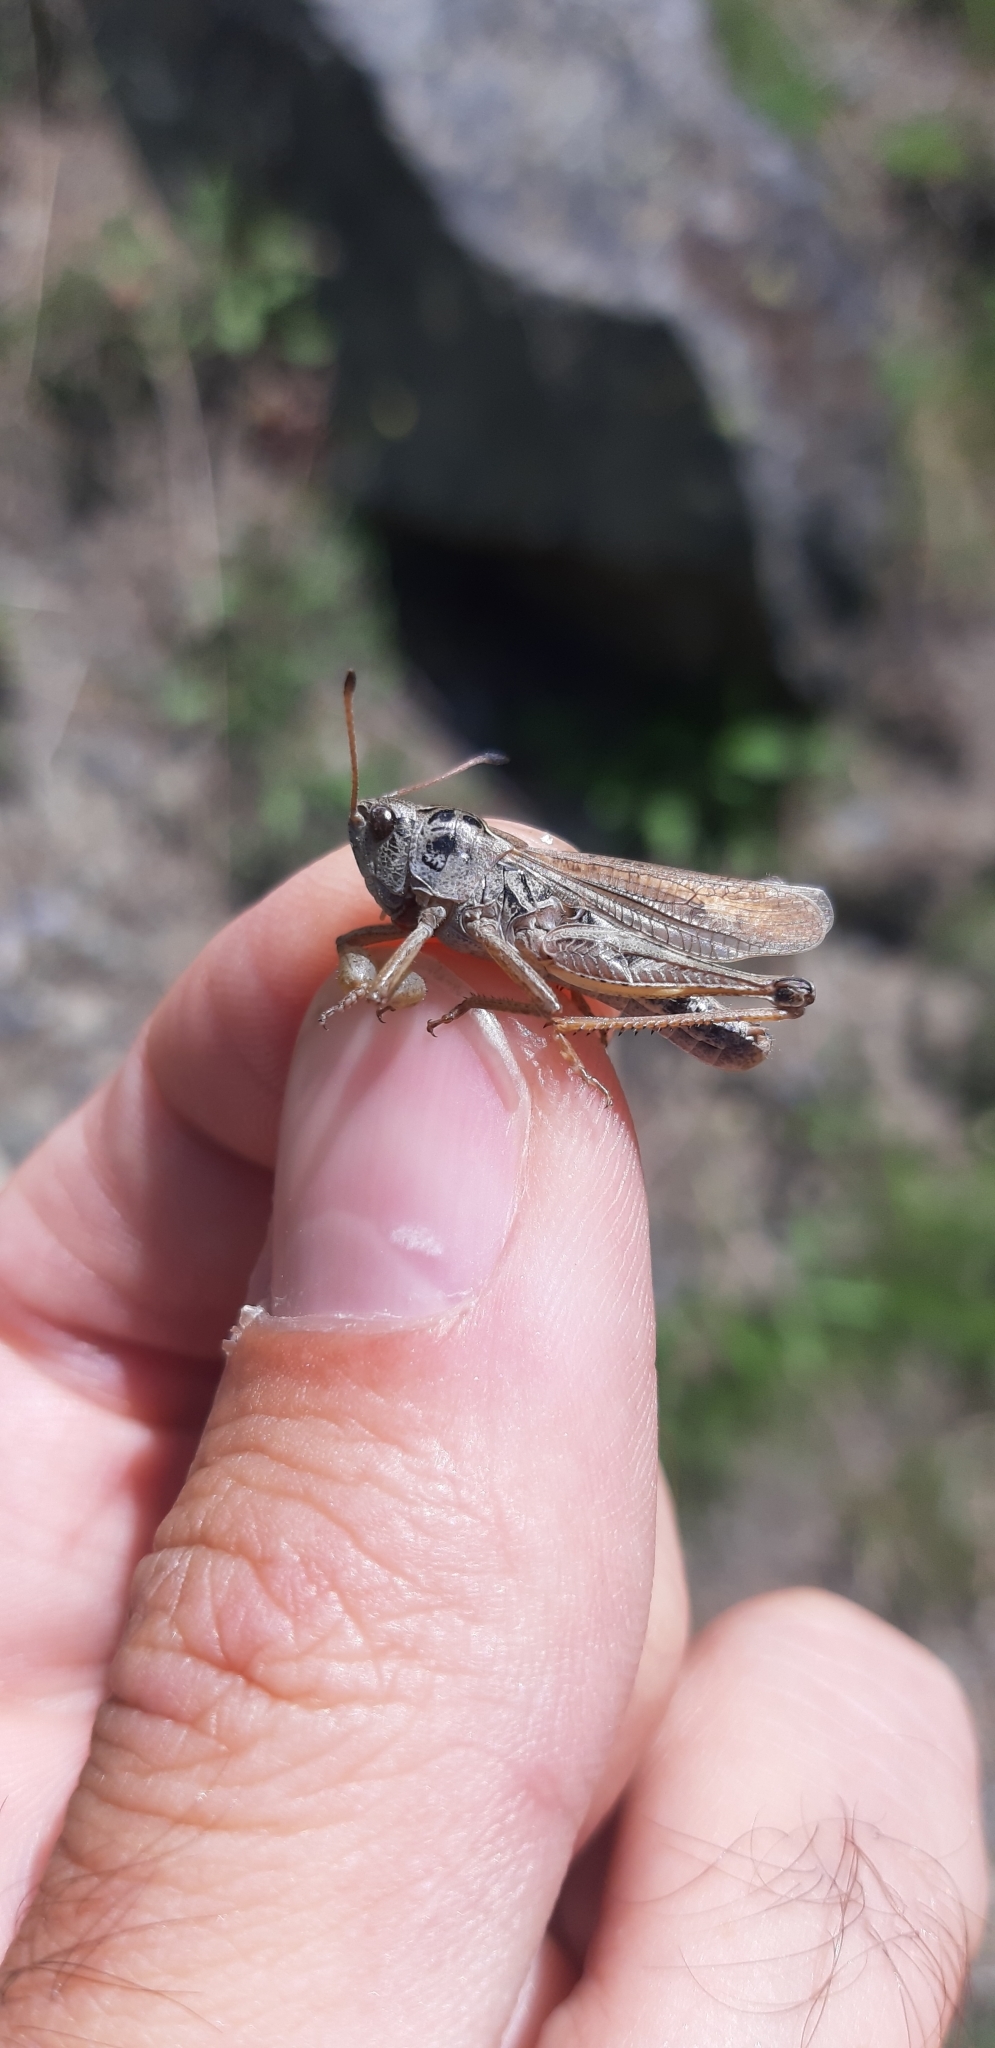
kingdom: Animalia
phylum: Arthropoda
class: Insecta
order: Orthoptera
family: Acrididae
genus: Gomphocerus
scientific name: Gomphocerus sibiricus
